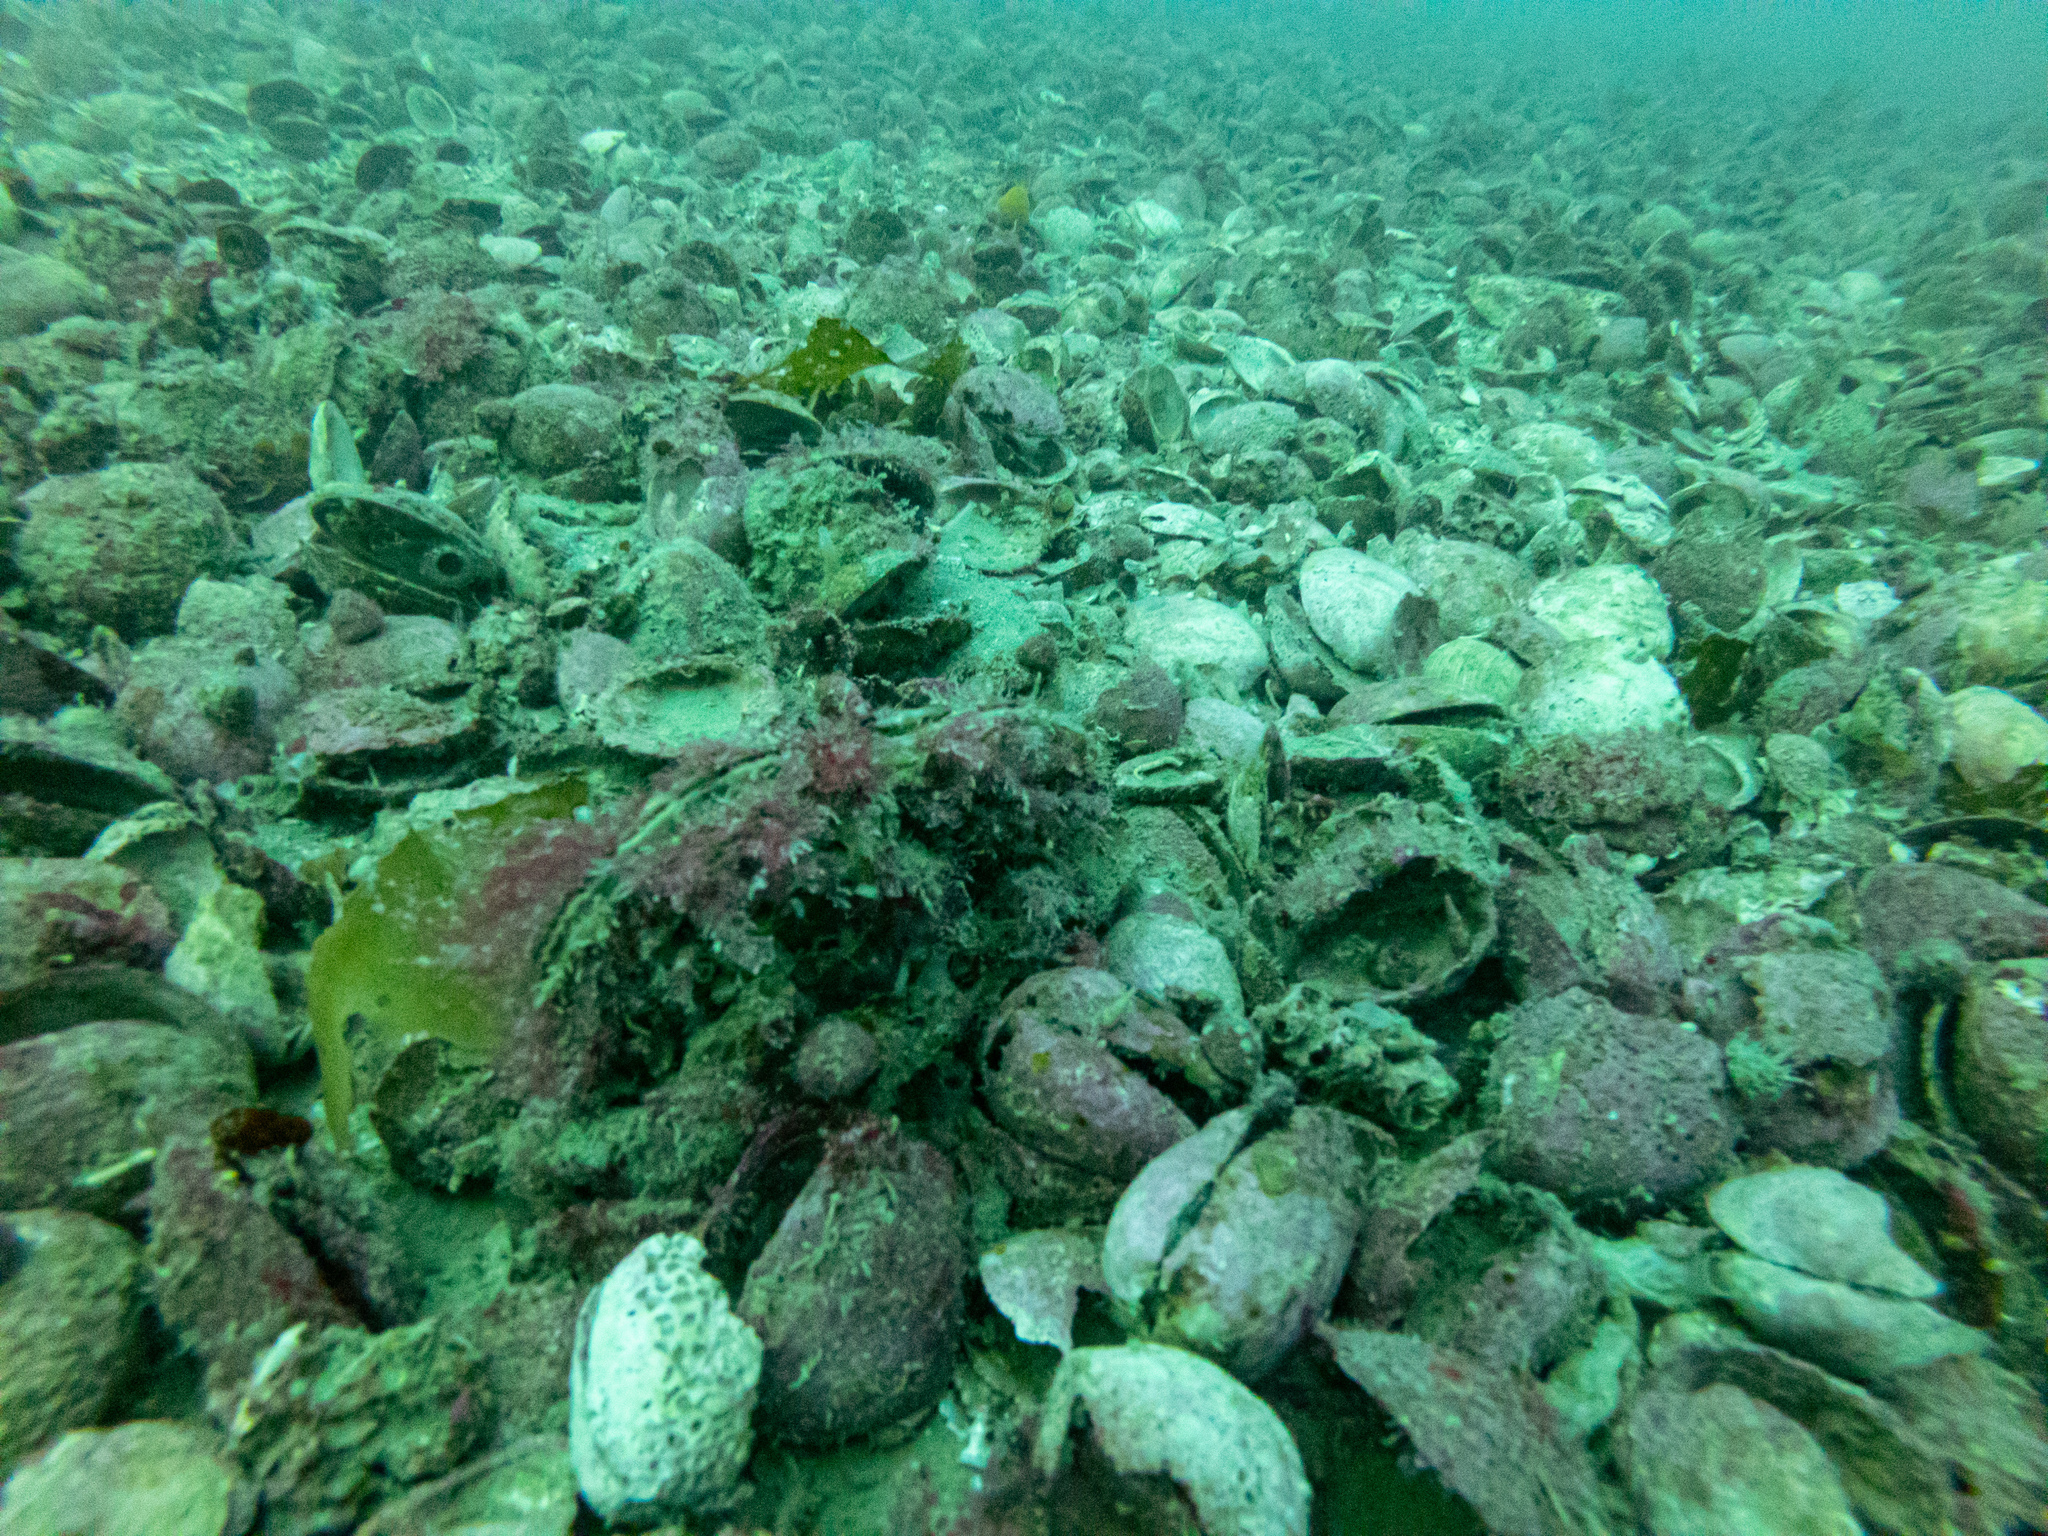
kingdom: Animalia
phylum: Mollusca
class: Bivalvia
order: Ostreida
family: Pinnidae
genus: Atrina
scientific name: Atrina zelandica
